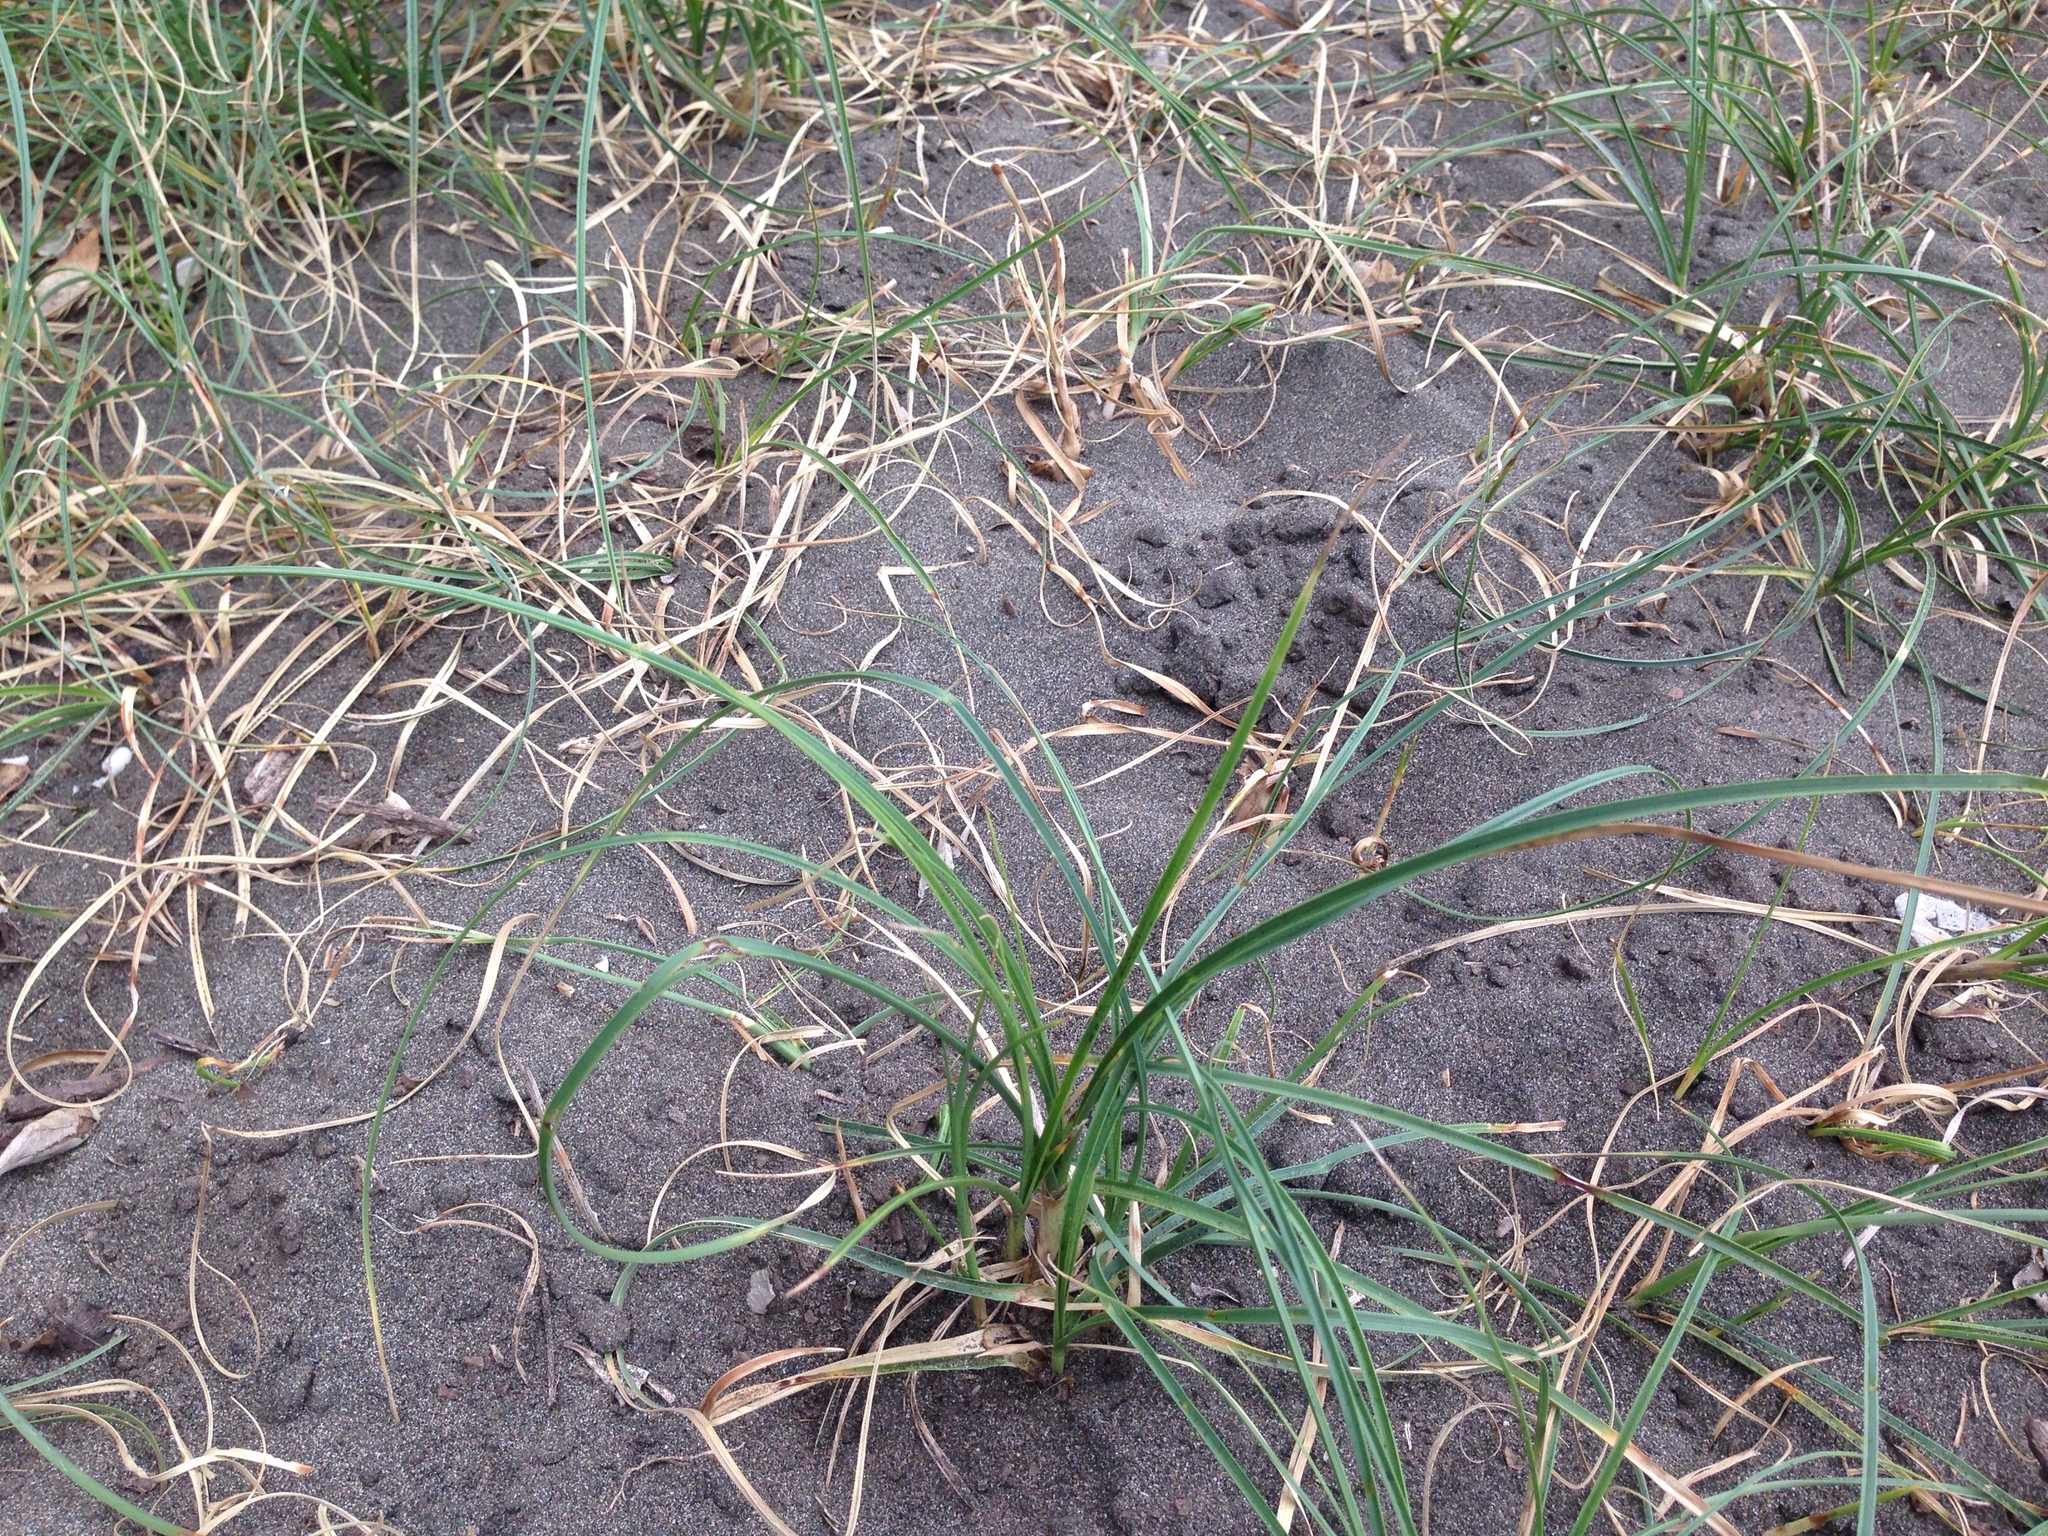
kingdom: Plantae
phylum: Tracheophyta
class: Liliopsida
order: Poales
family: Cyperaceae
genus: Carex
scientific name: Carex pumila
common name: Dwarf sedge
